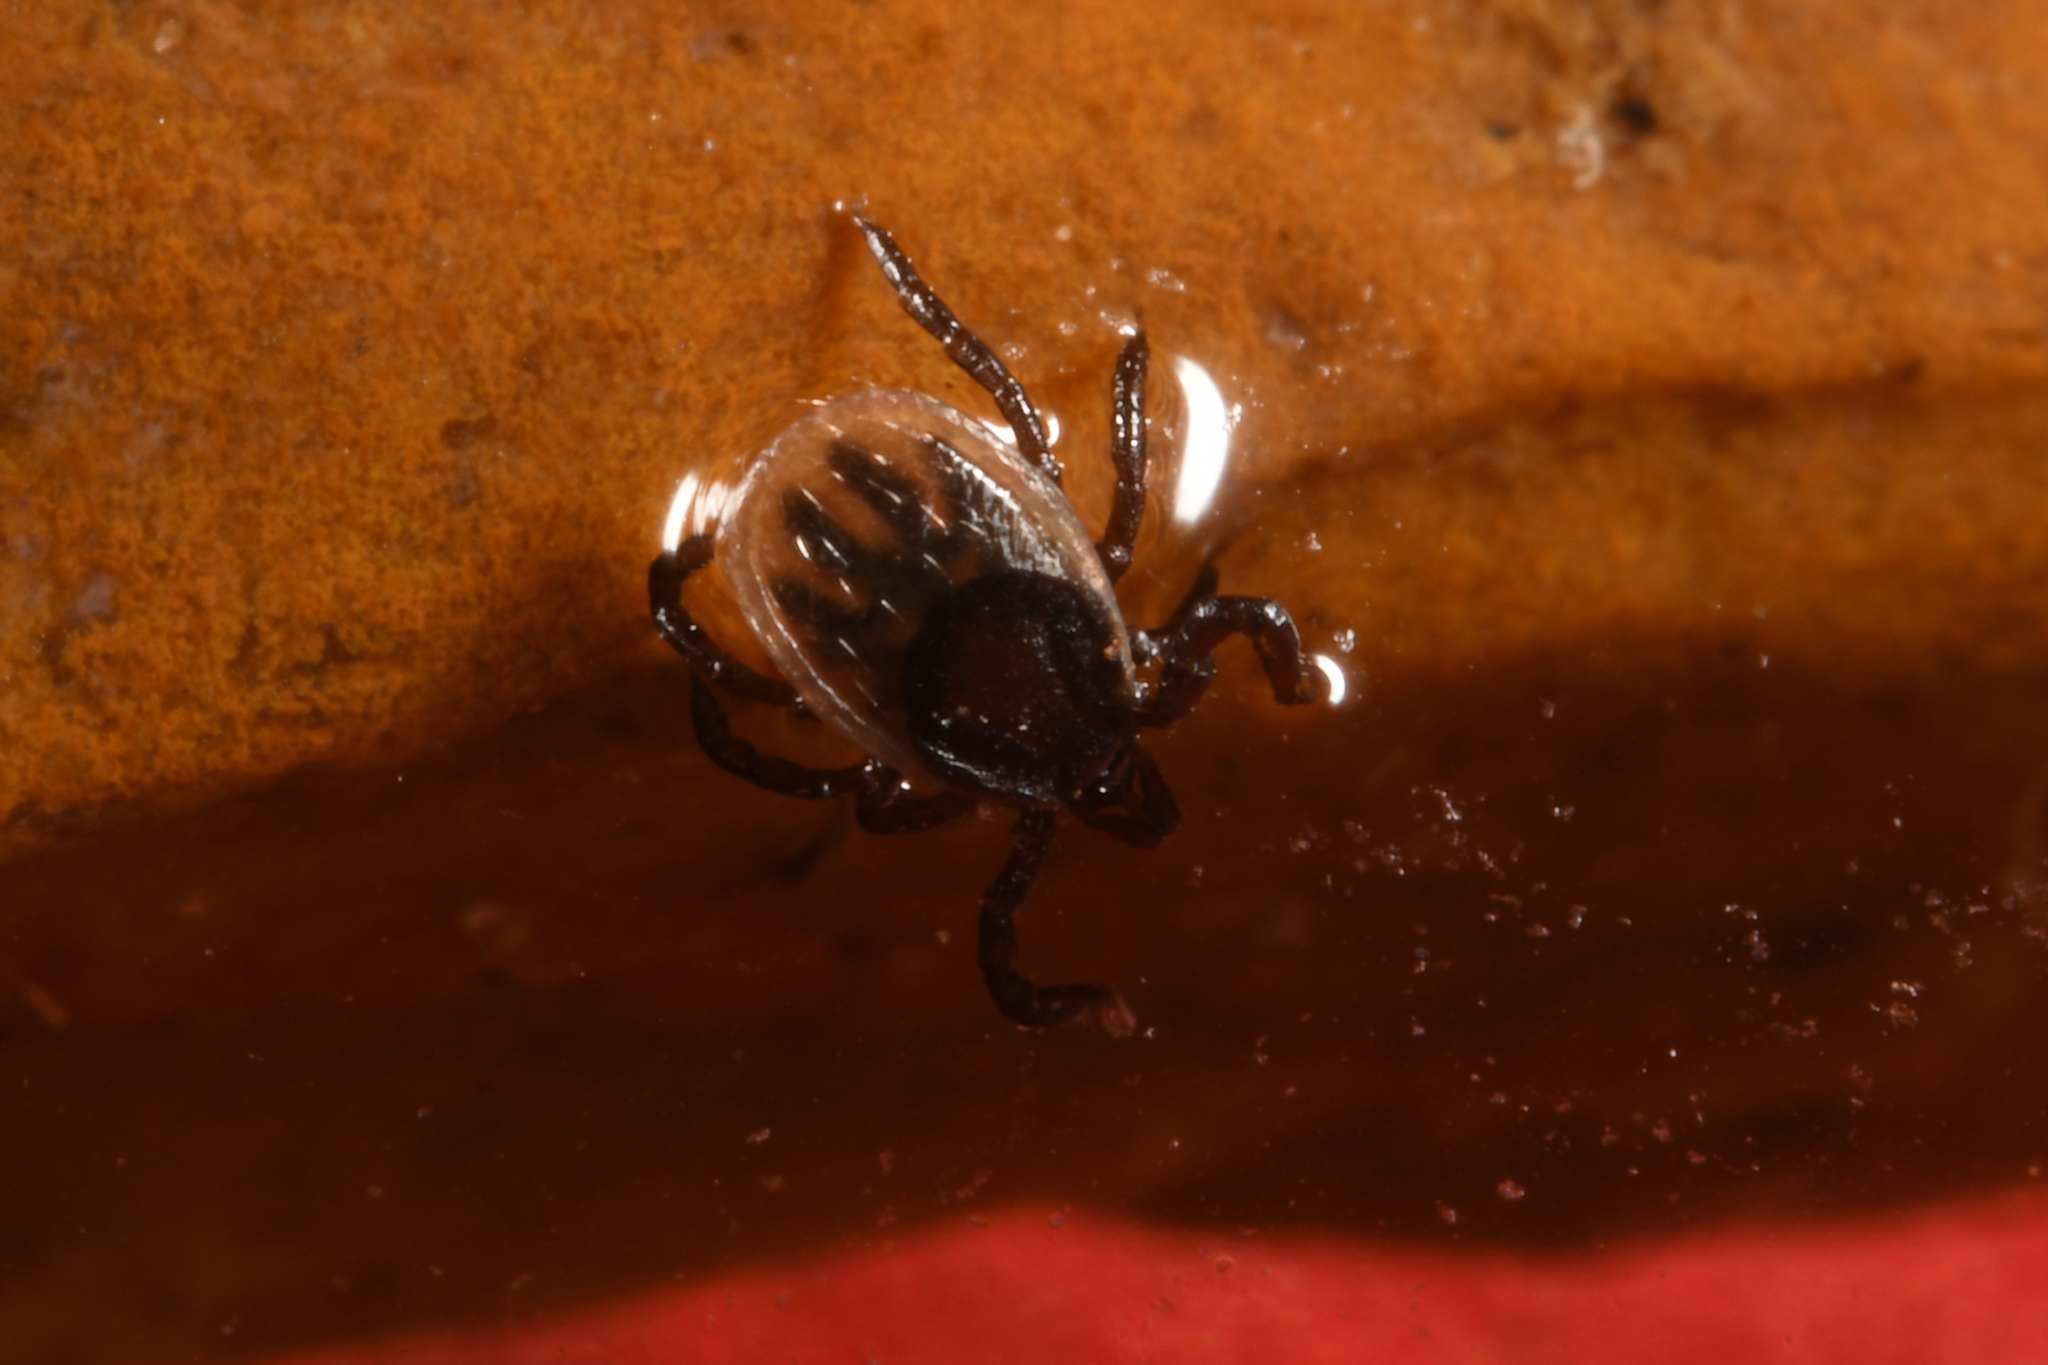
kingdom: Animalia
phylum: Arthropoda
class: Arachnida
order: Ixodida
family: Ixodidae
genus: Ixodes
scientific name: Ixodes ricinus
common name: Castor bean tick
